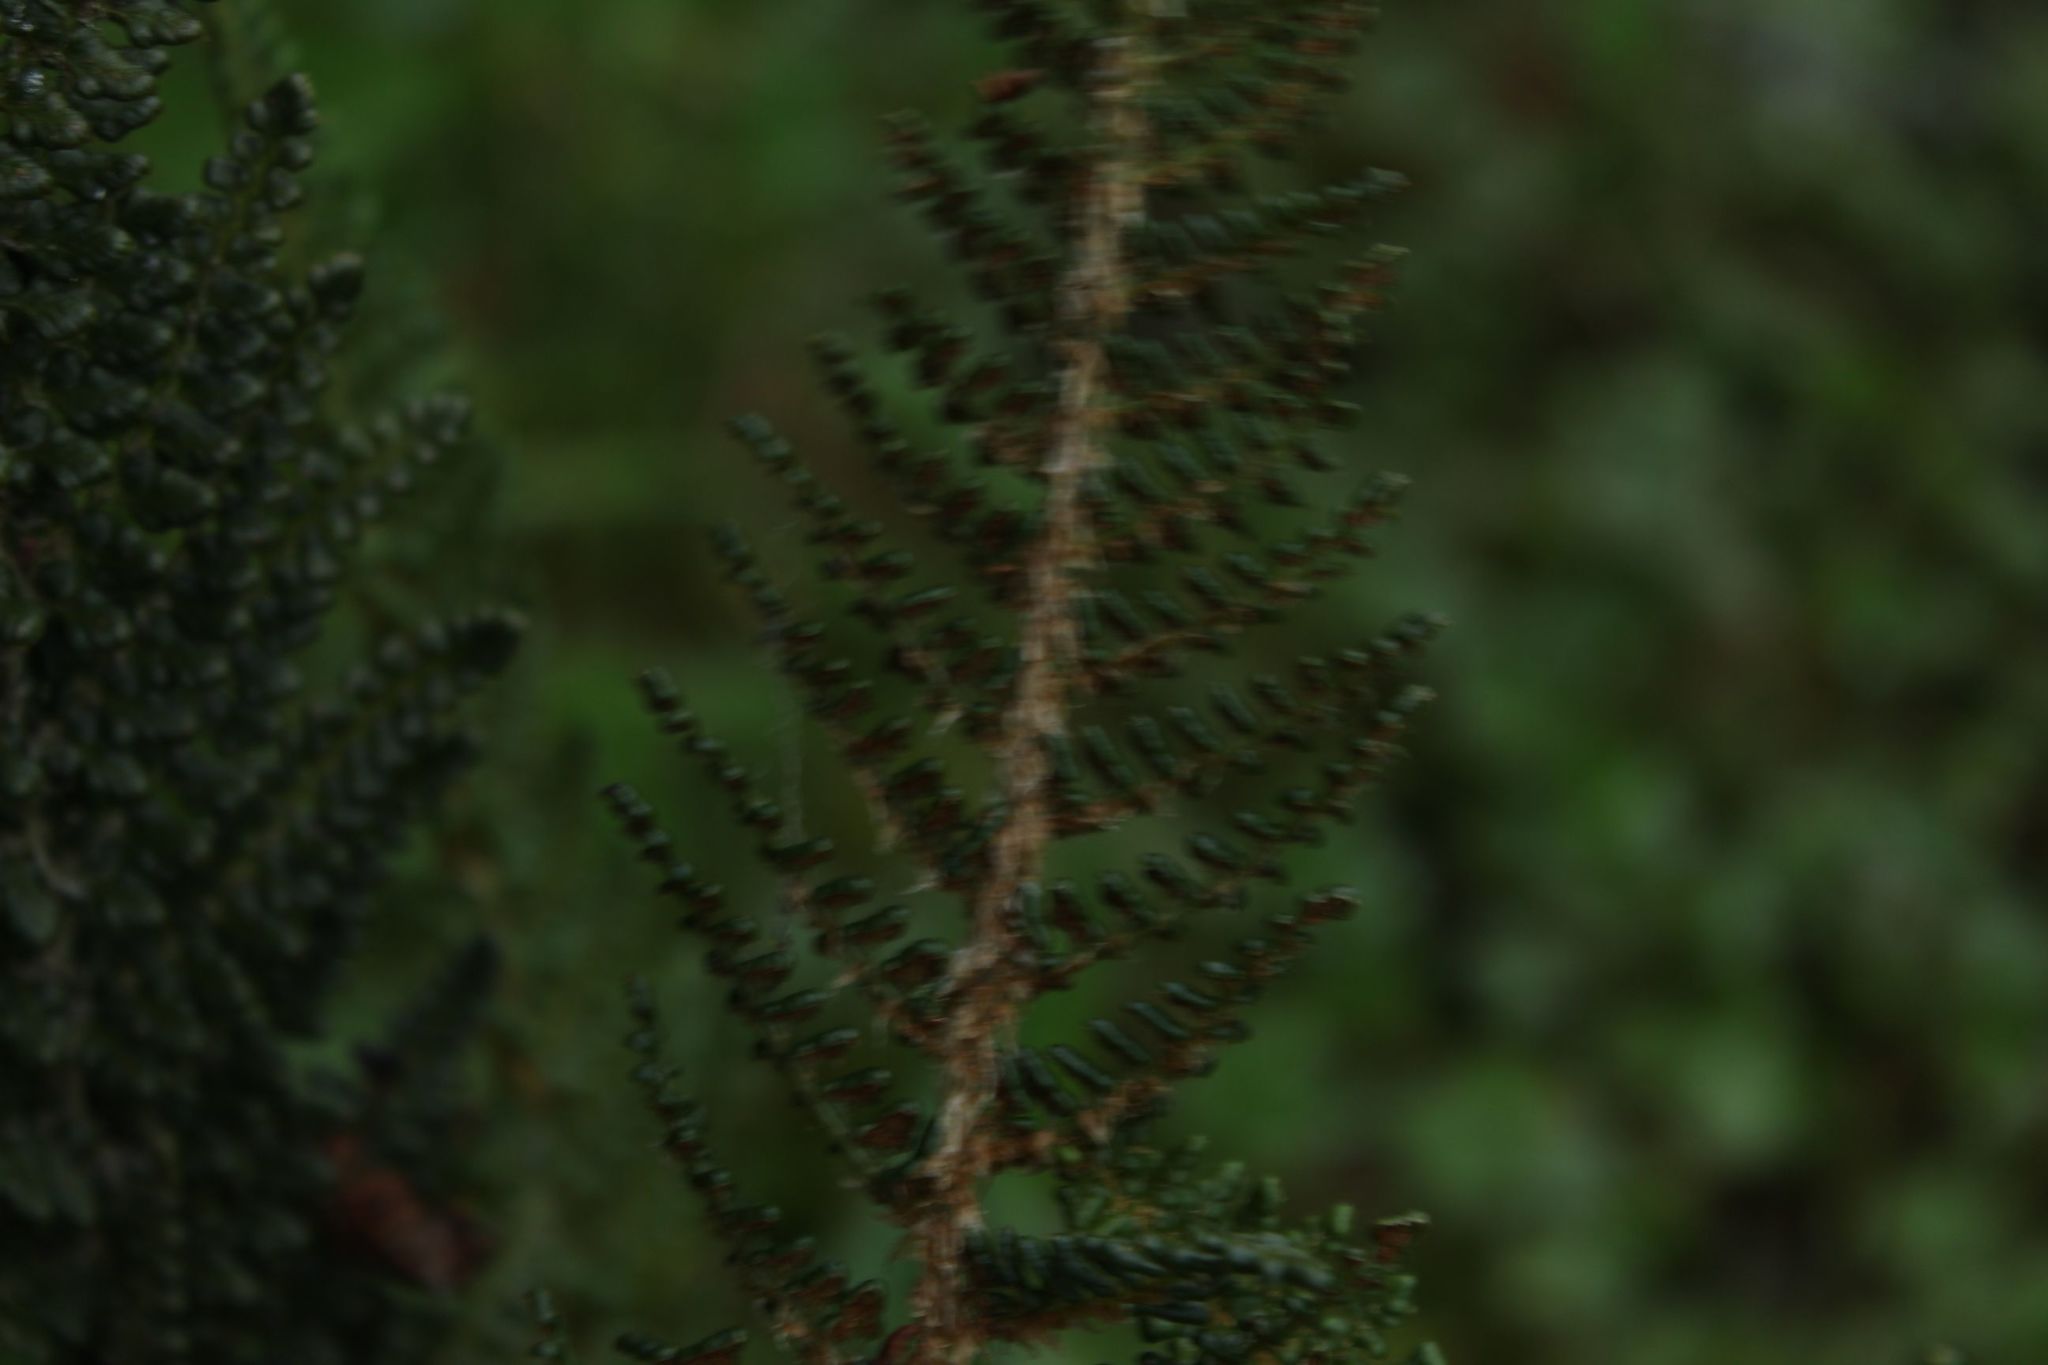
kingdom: Plantae
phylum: Tracheophyta
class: Polypodiopsida
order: Polypodiales
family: Dryopteridaceae
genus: Polystichum
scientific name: Polystichum orbiculatum
